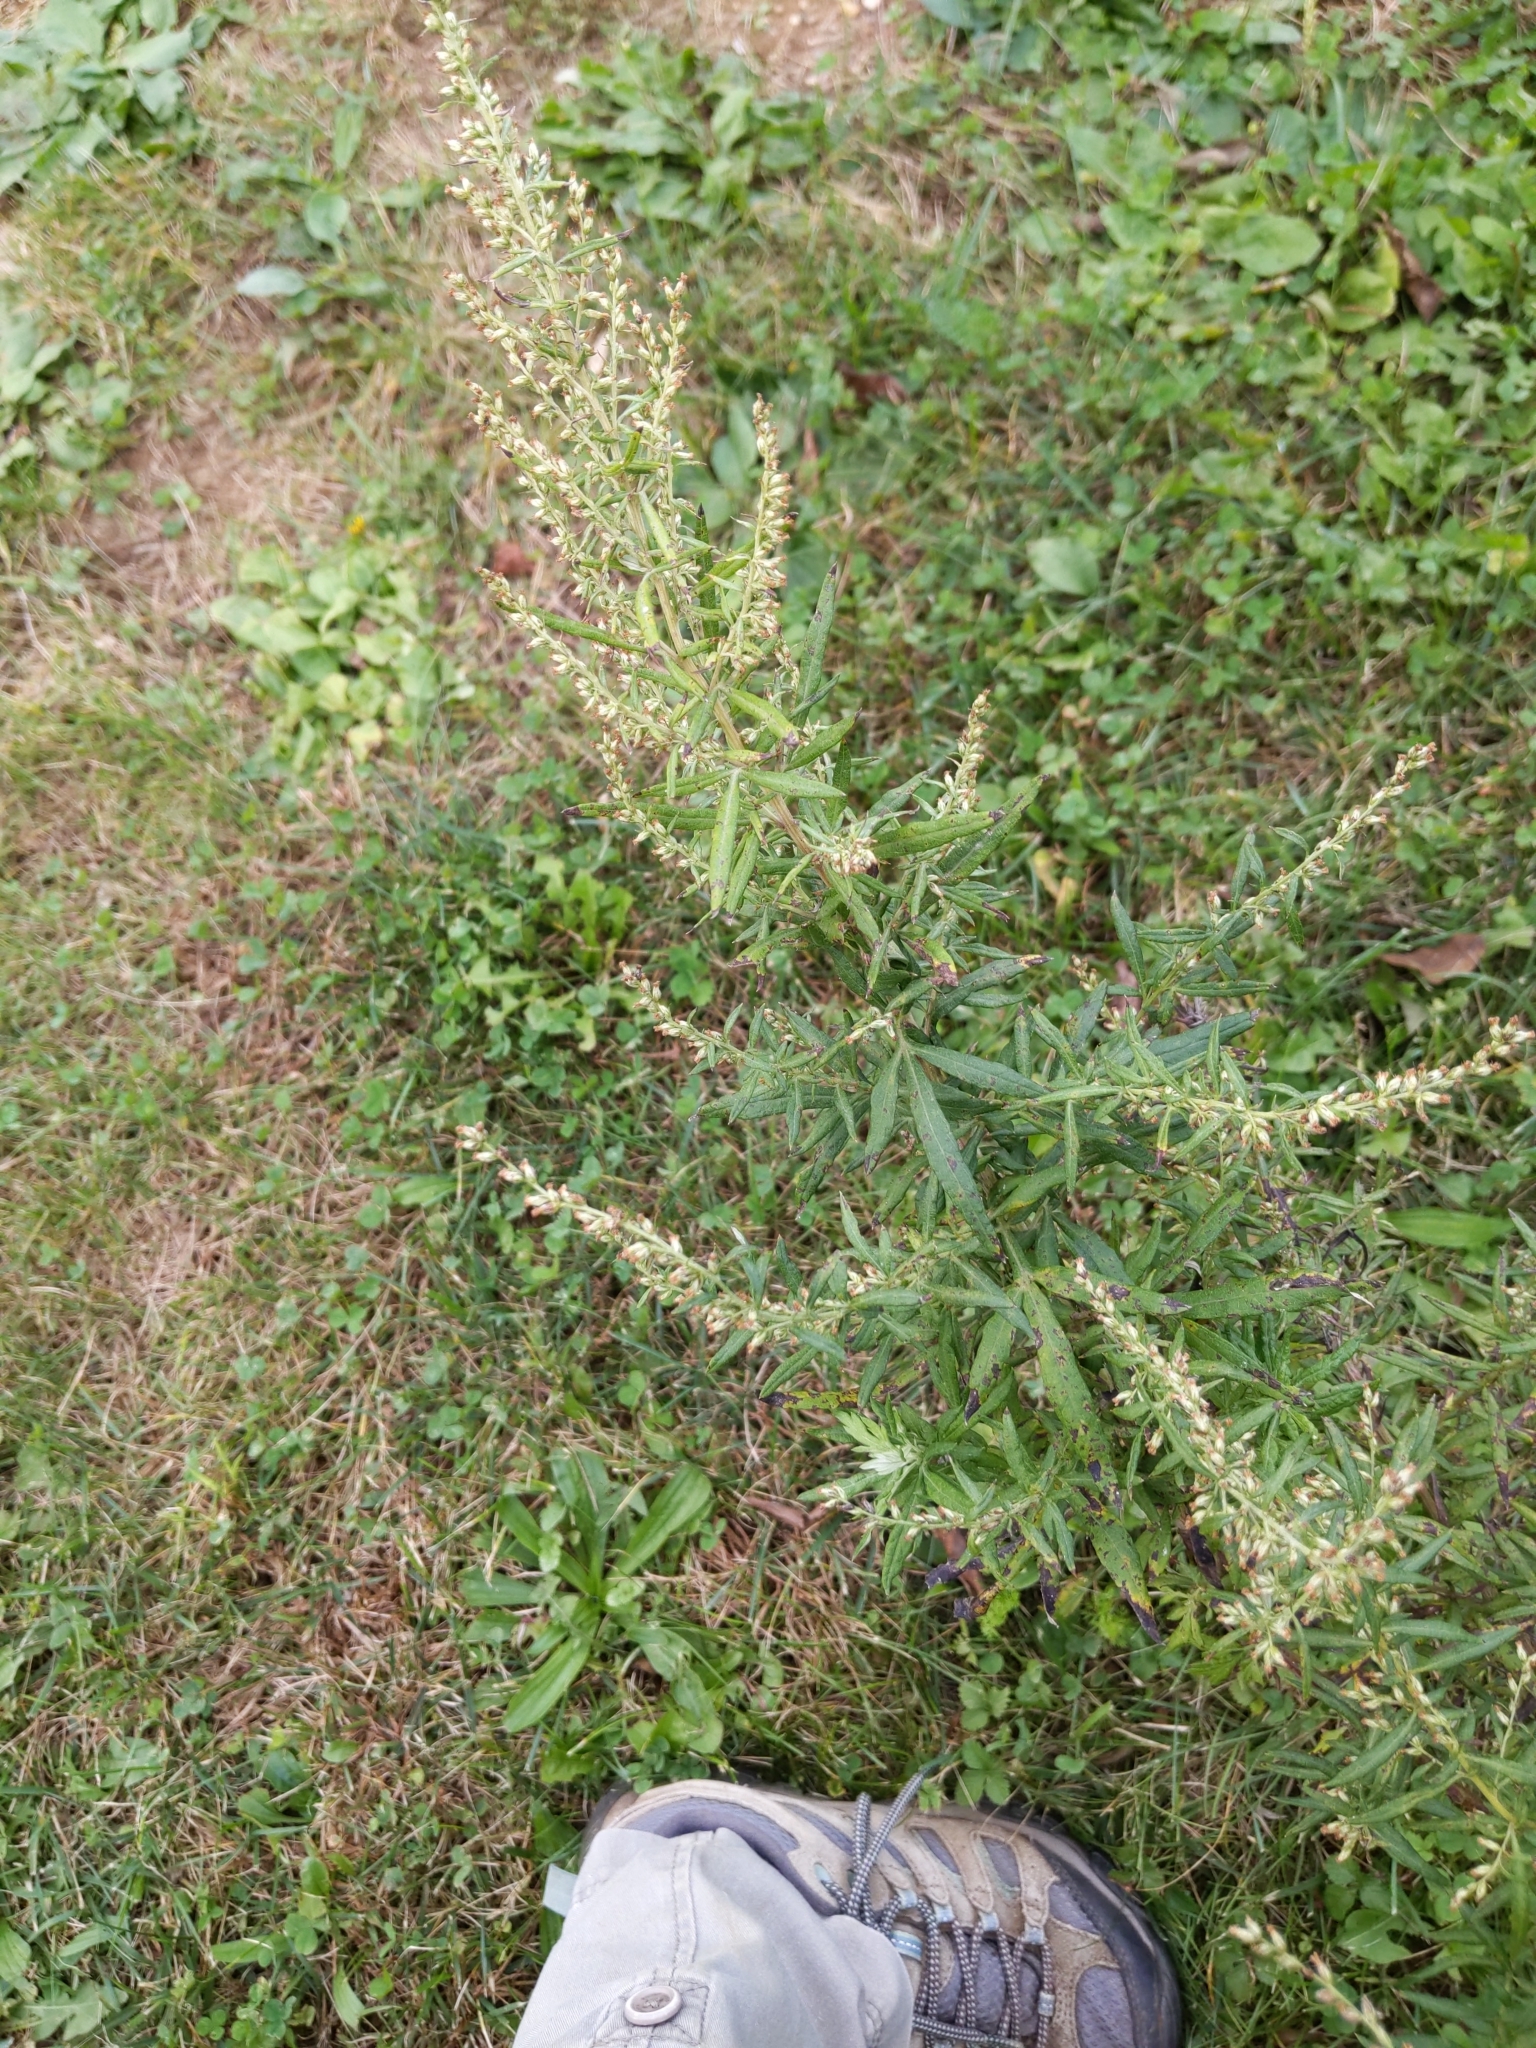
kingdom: Plantae
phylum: Tracheophyta
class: Magnoliopsida
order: Asterales
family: Asteraceae
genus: Artemisia
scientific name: Artemisia vulgaris
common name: Mugwort
